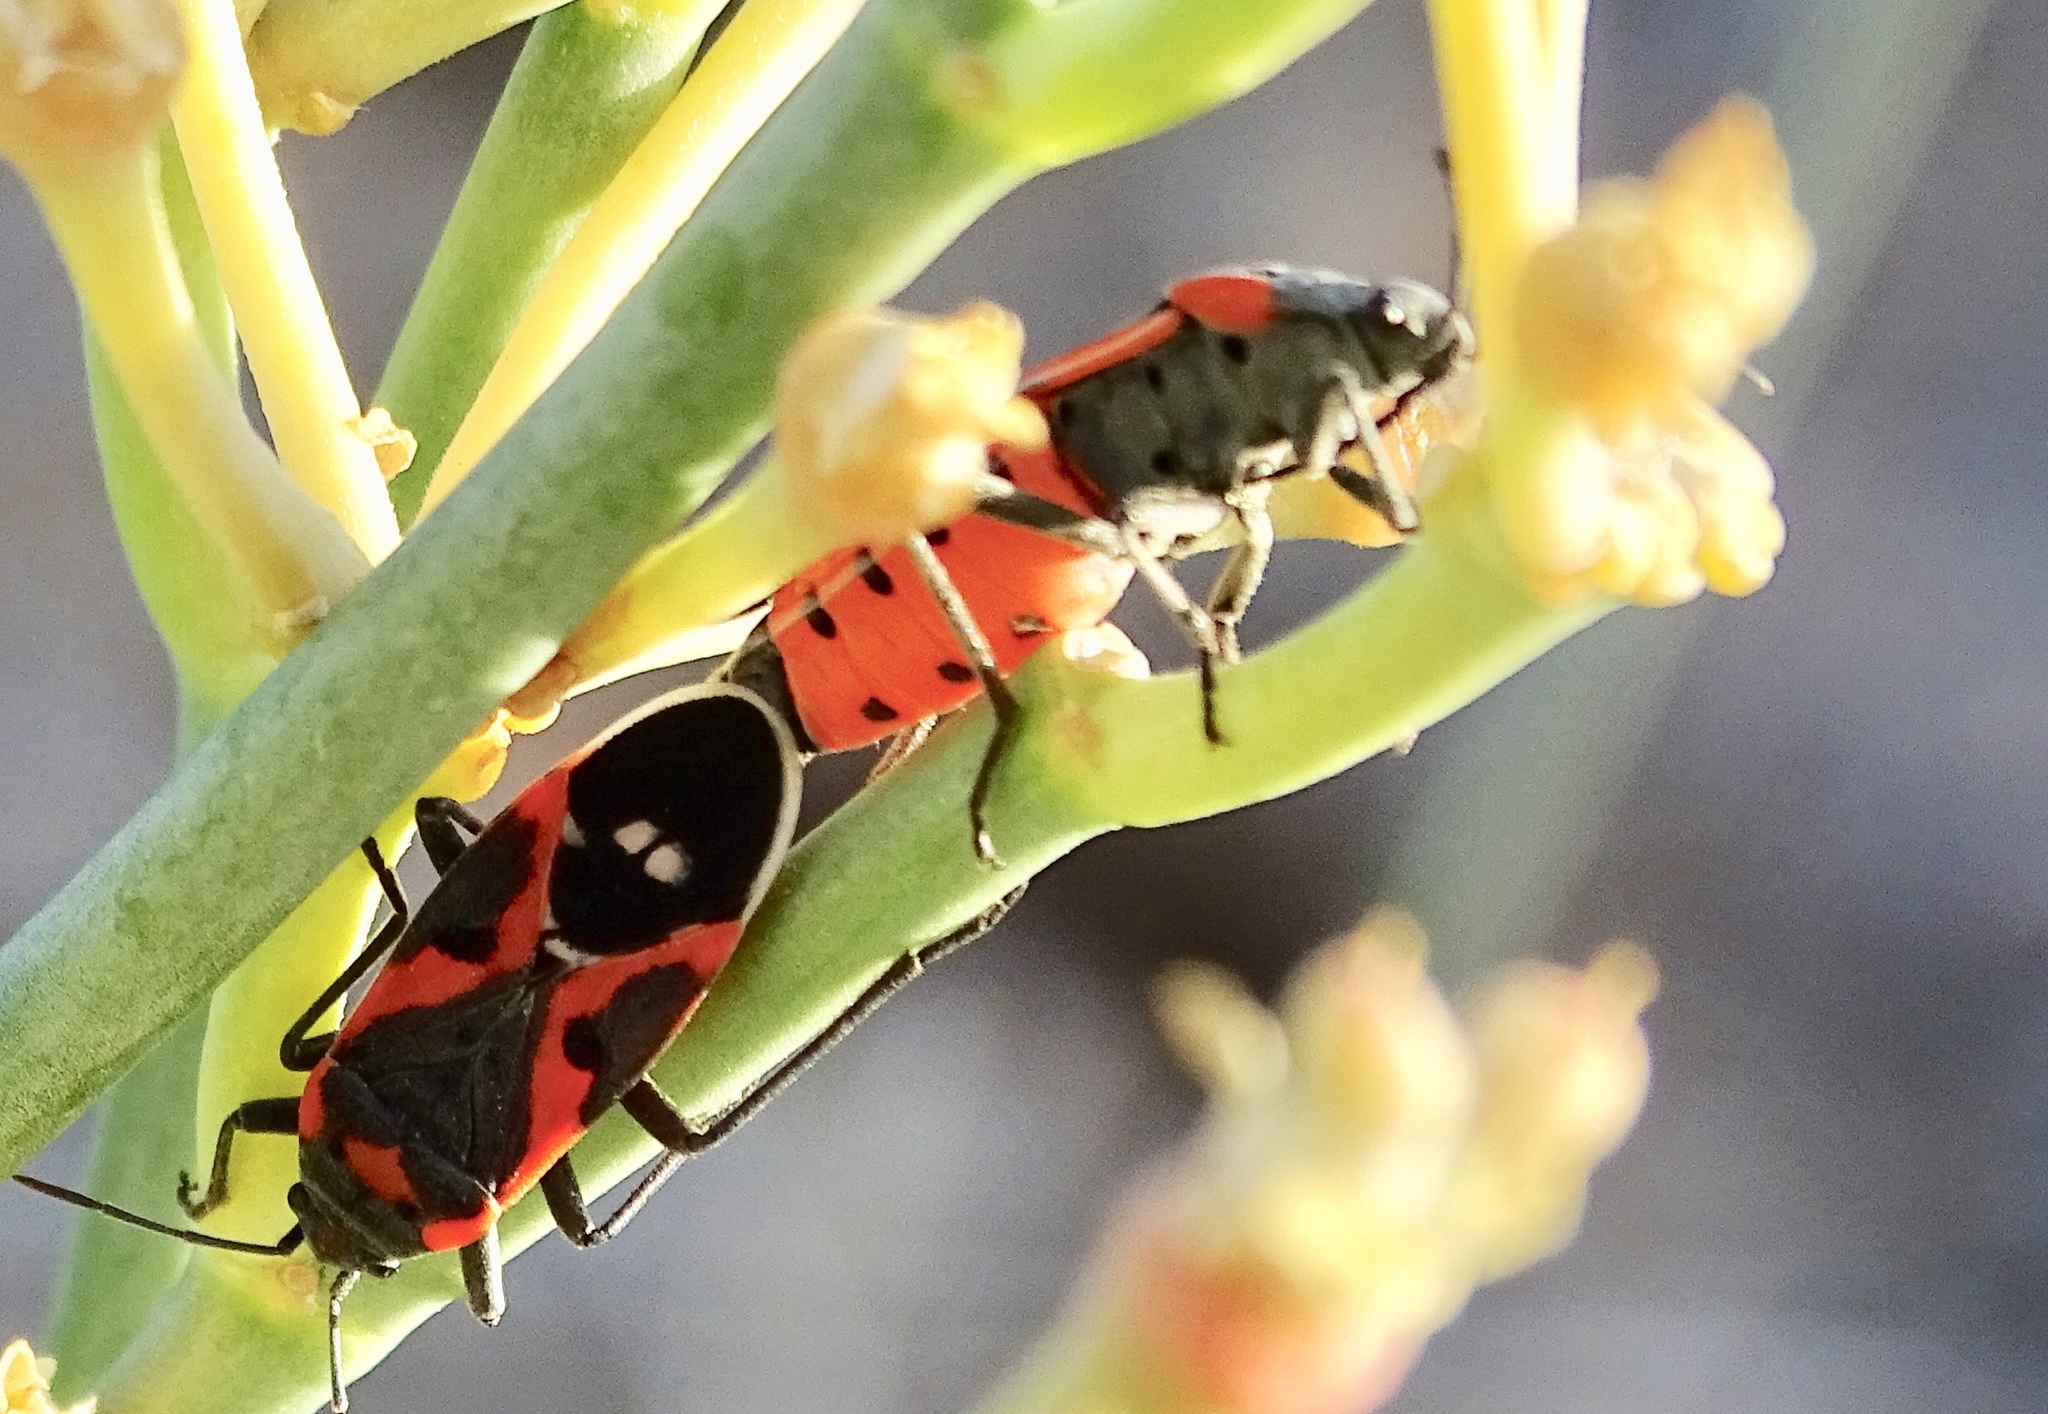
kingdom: Animalia
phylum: Arthropoda
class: Insecta
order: Hemiptera
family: Lygaeidae
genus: Lygaeus
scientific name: Lygaeus kalmii
